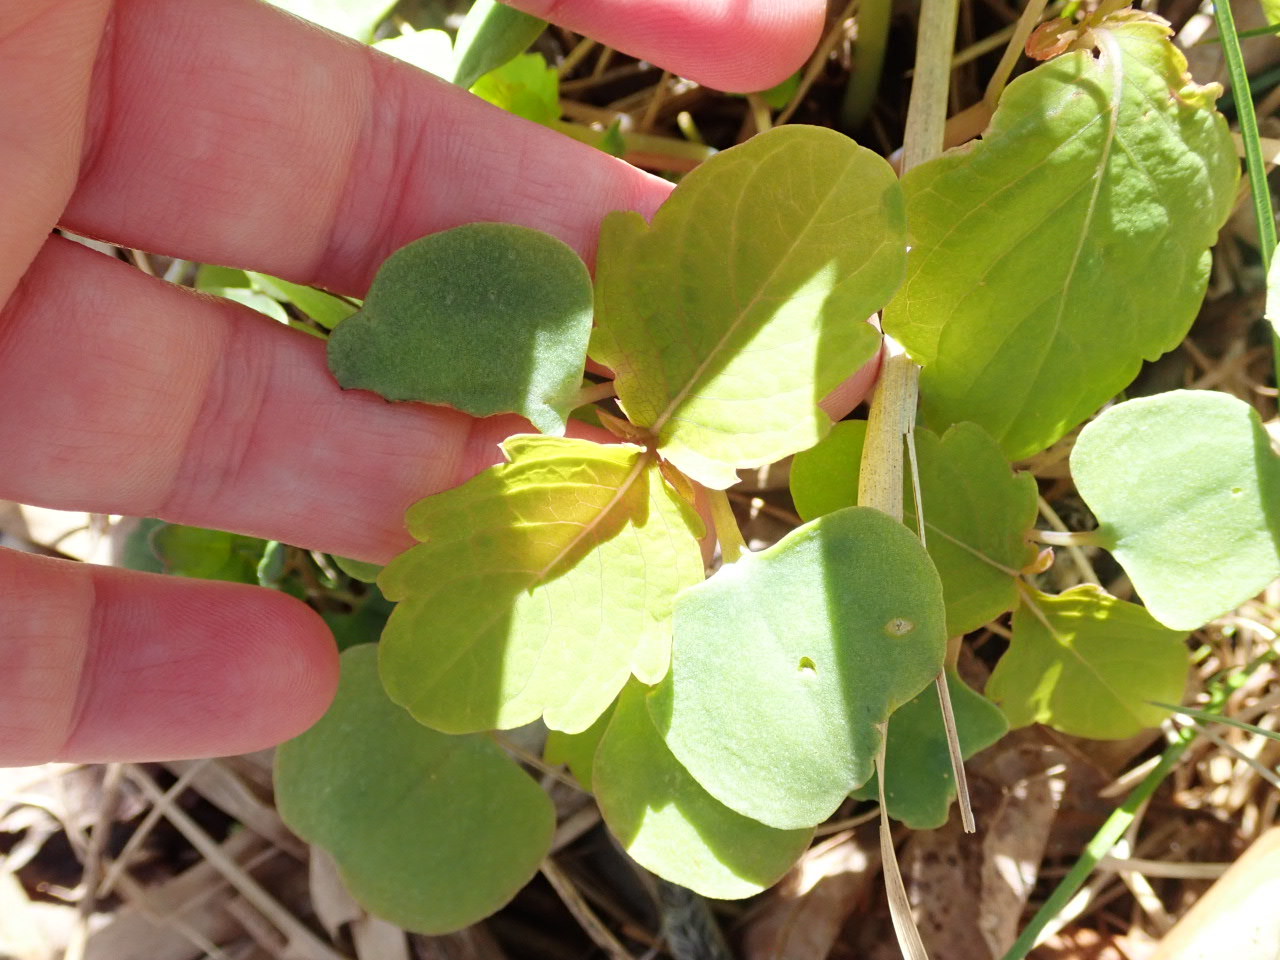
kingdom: Plantae
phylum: Tracheophyta
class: Magnoliopsida
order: Ericales
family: Balsaminaceae
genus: Impatiens
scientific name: Impatiens capensis
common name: Orange balsam
